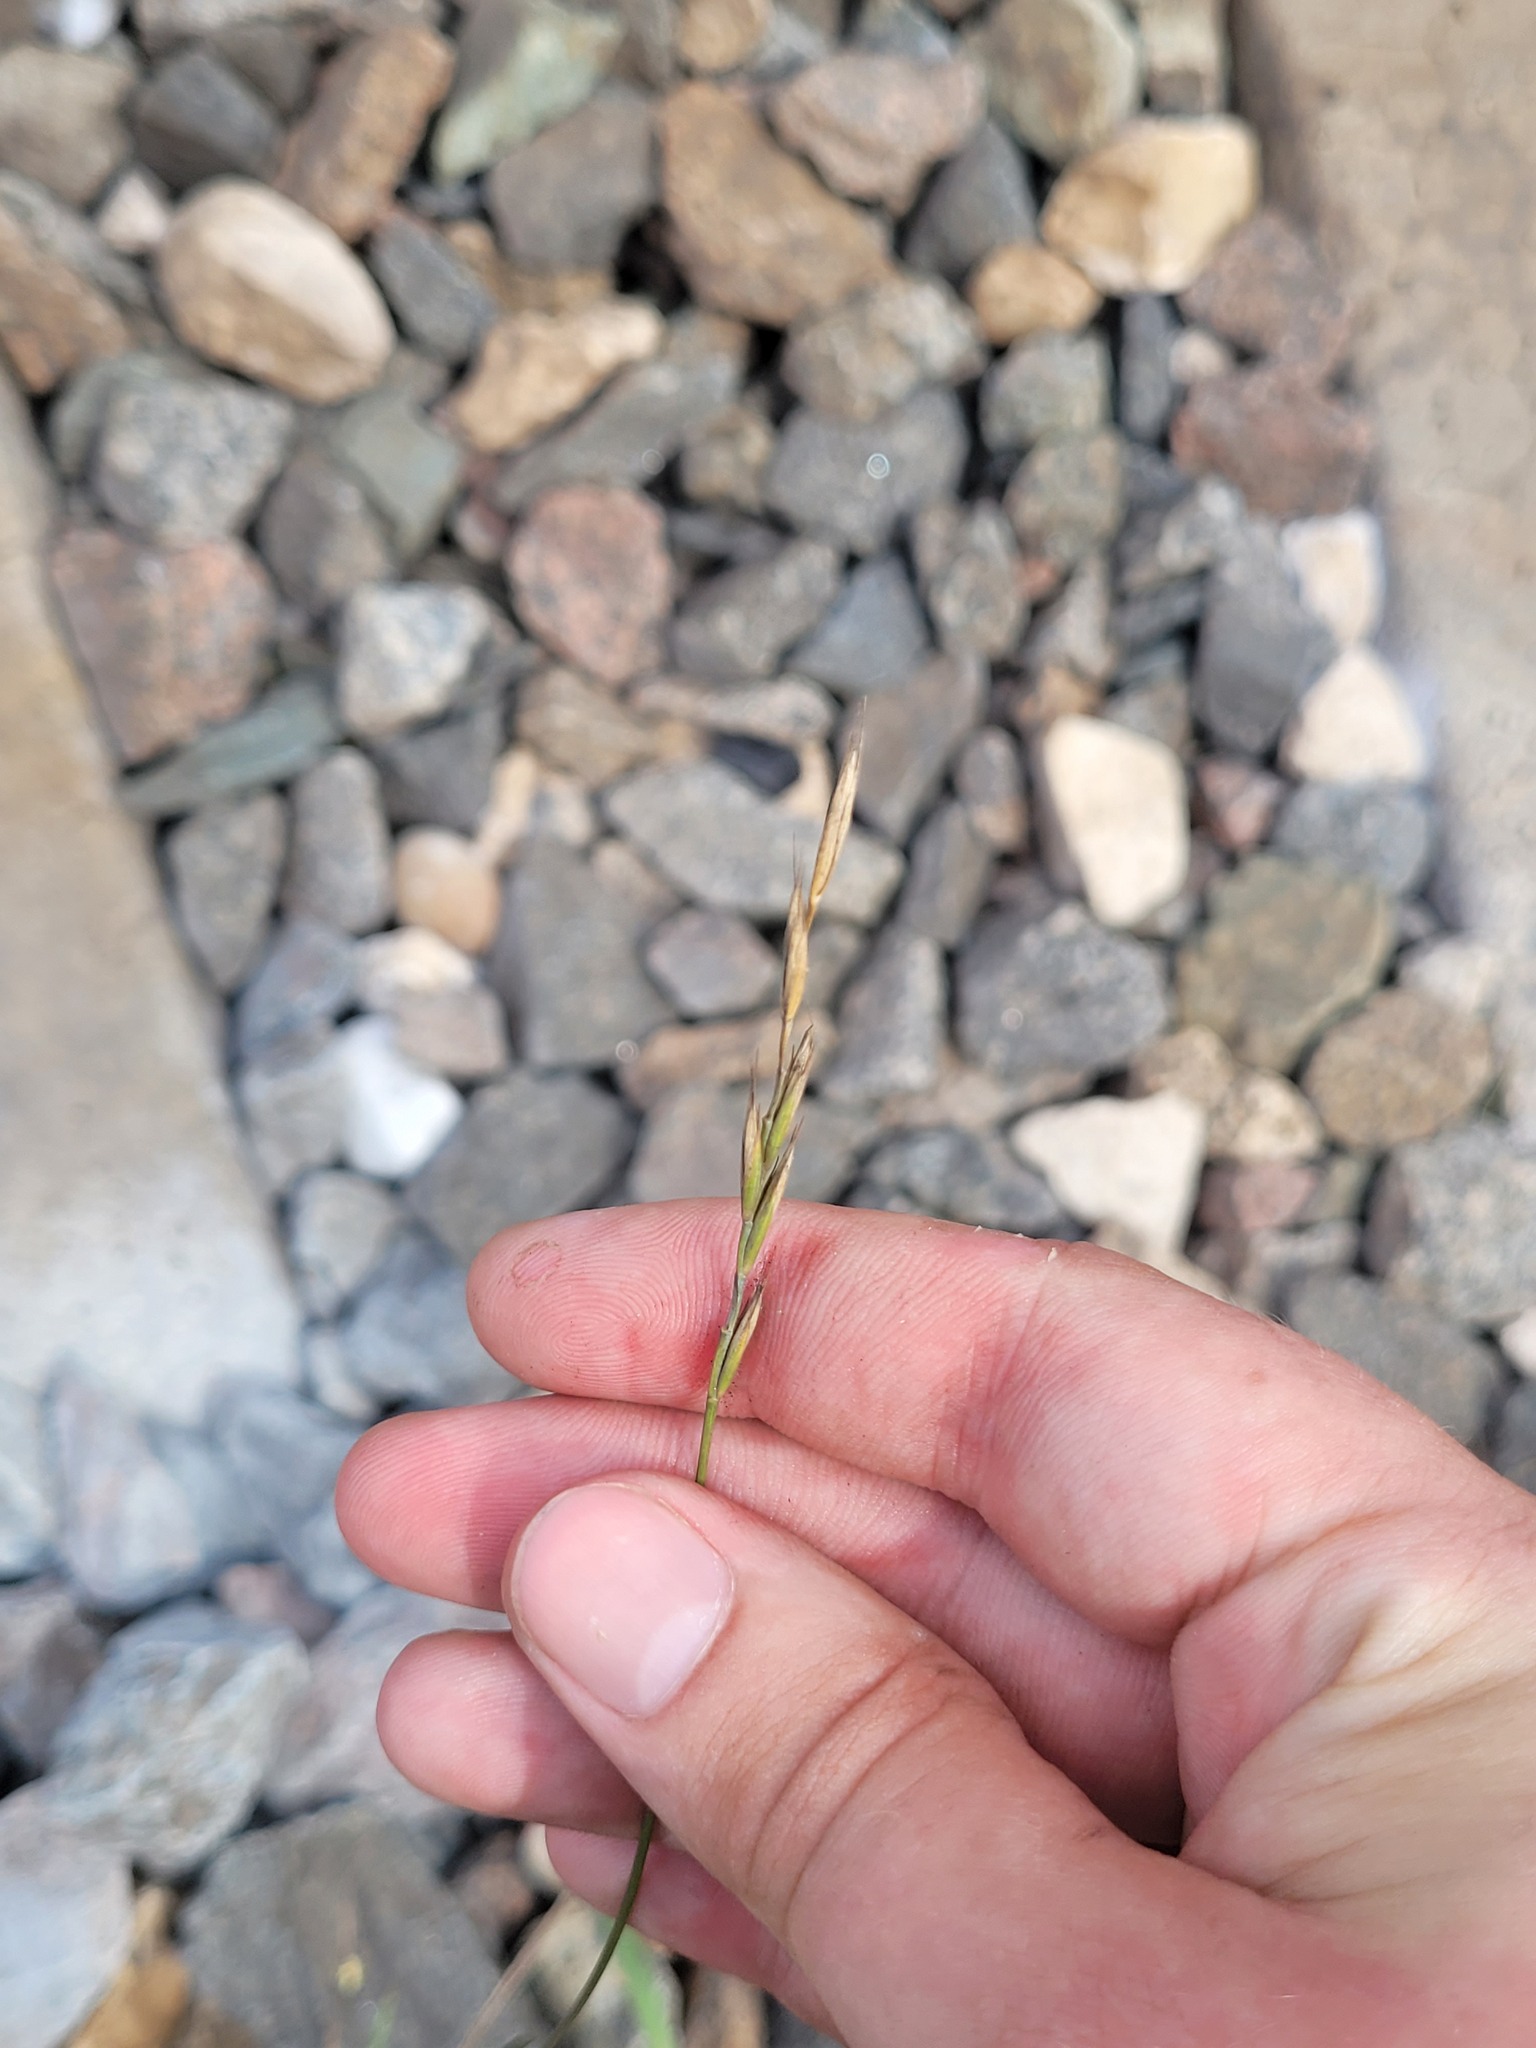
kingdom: Plantae
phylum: Tracheophyta
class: Liliopsida
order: Poales
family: Poaceae
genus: Elymus
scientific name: Elymus repens
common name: Quackgrass
